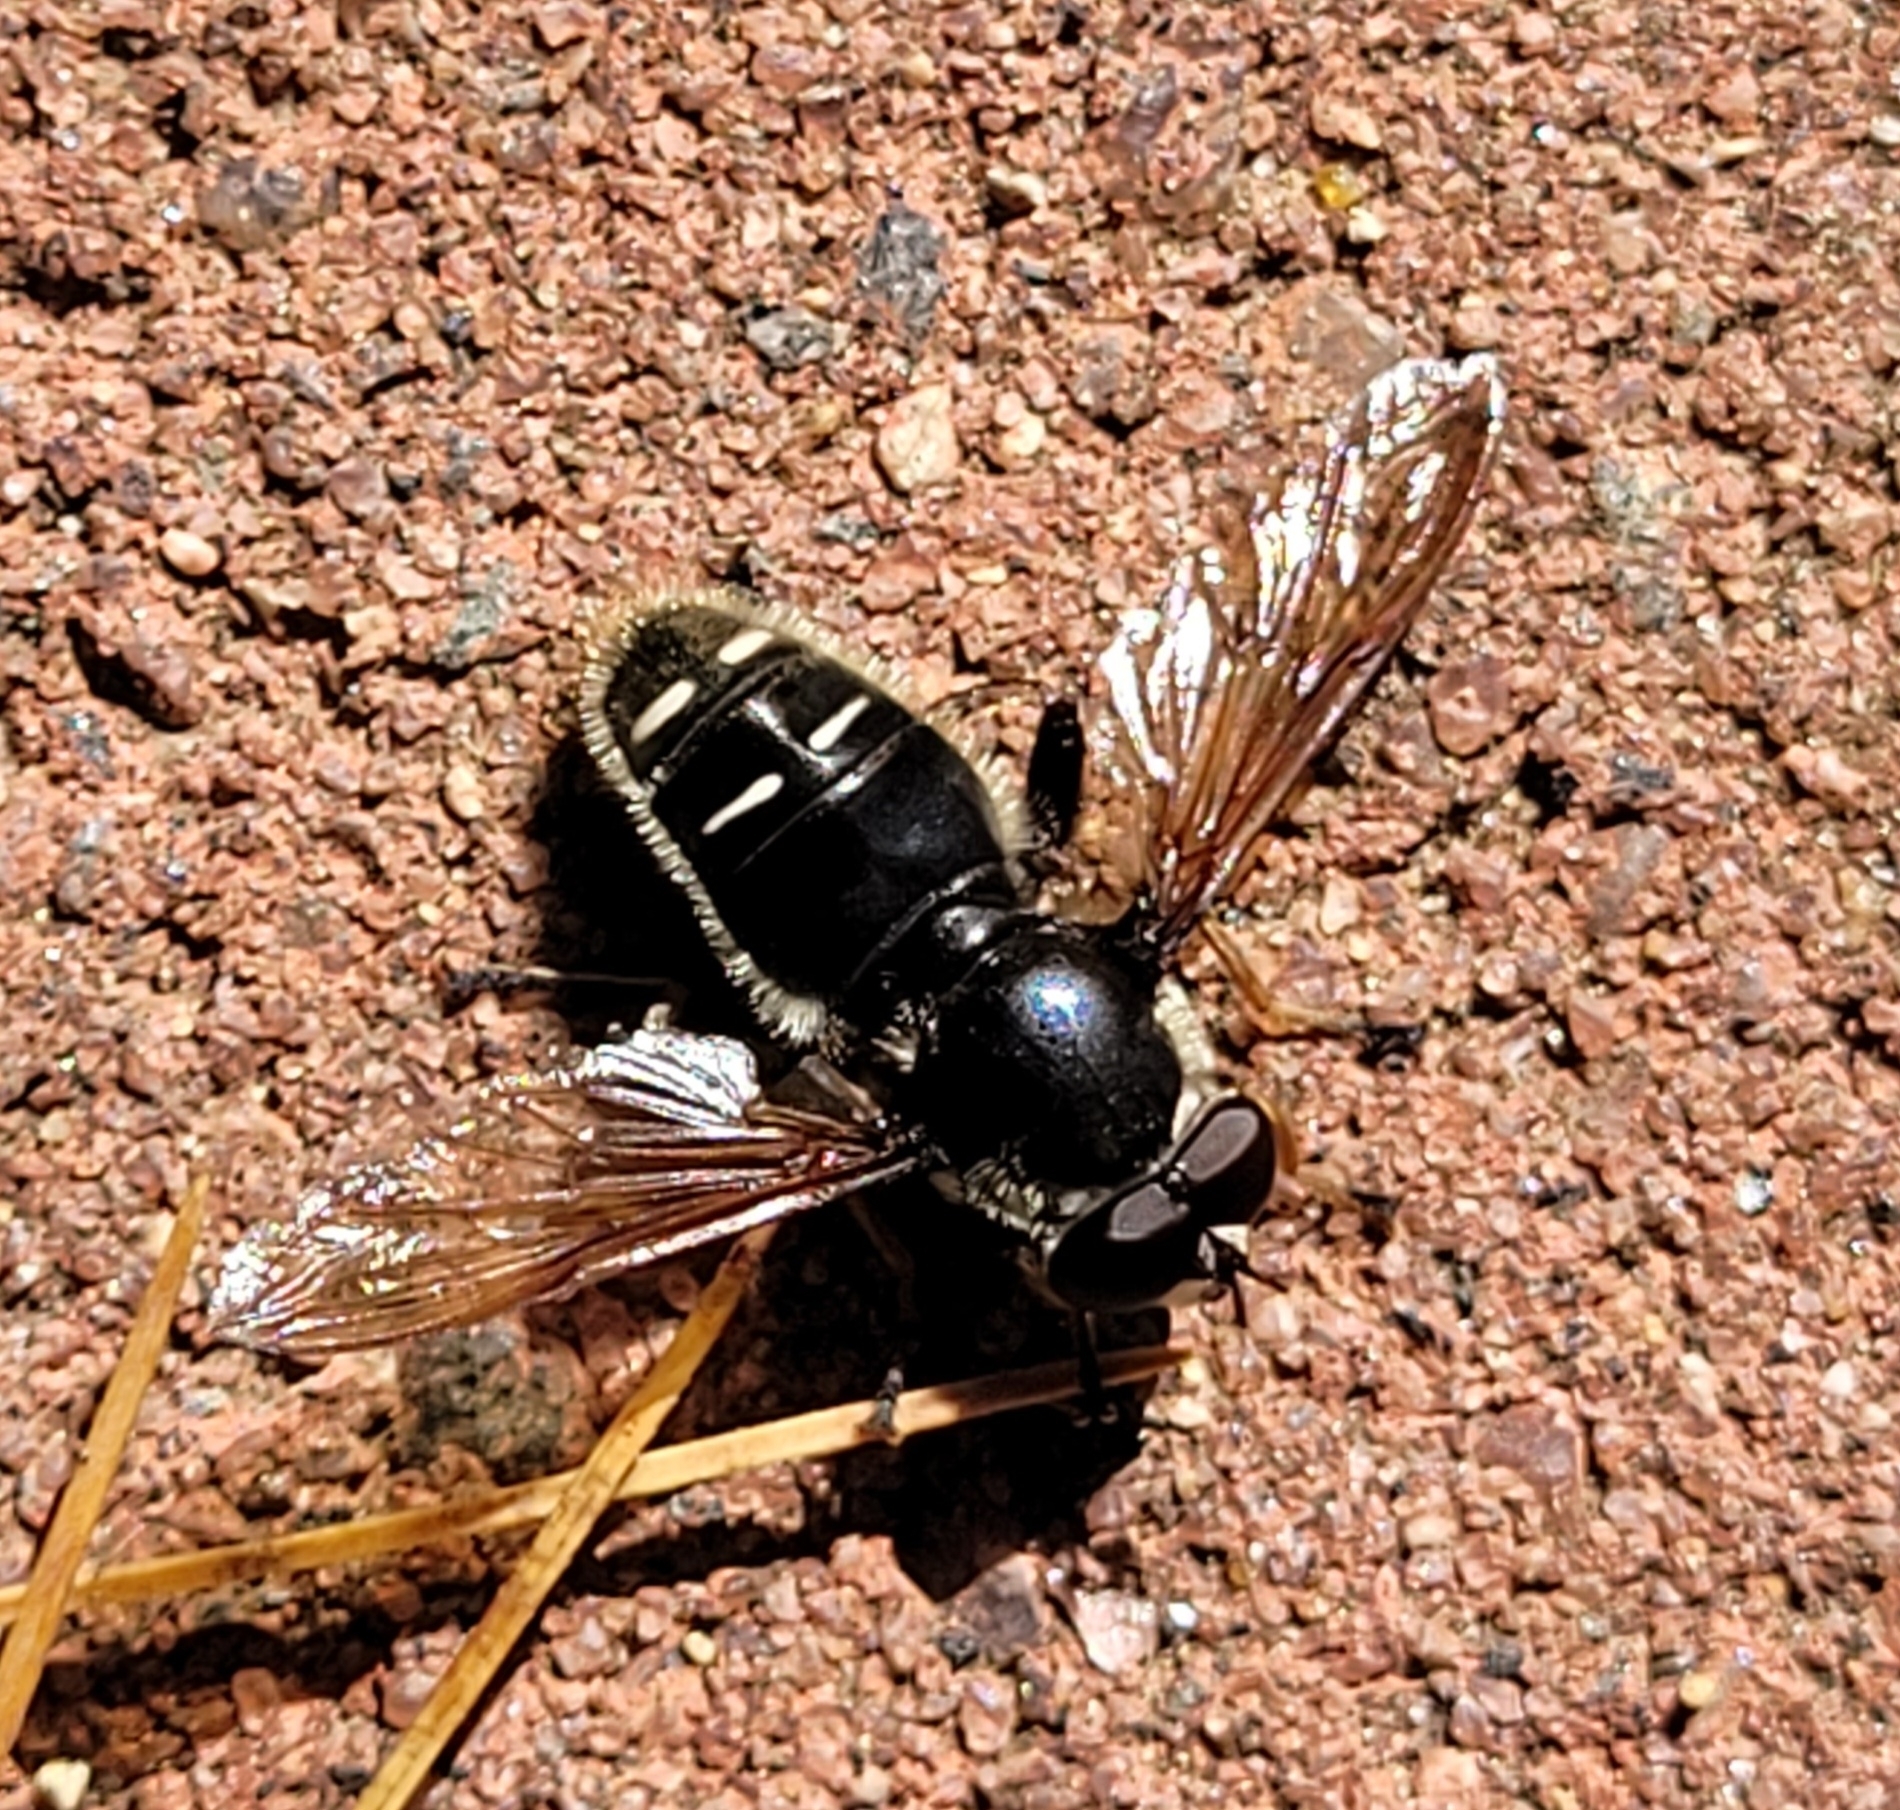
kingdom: Animalia
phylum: Arthropoda
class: Insecta
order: Diptera
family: Syrphidae
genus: Sericomyia
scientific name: Sericomyia militaris
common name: Narrow-banded pond fly
